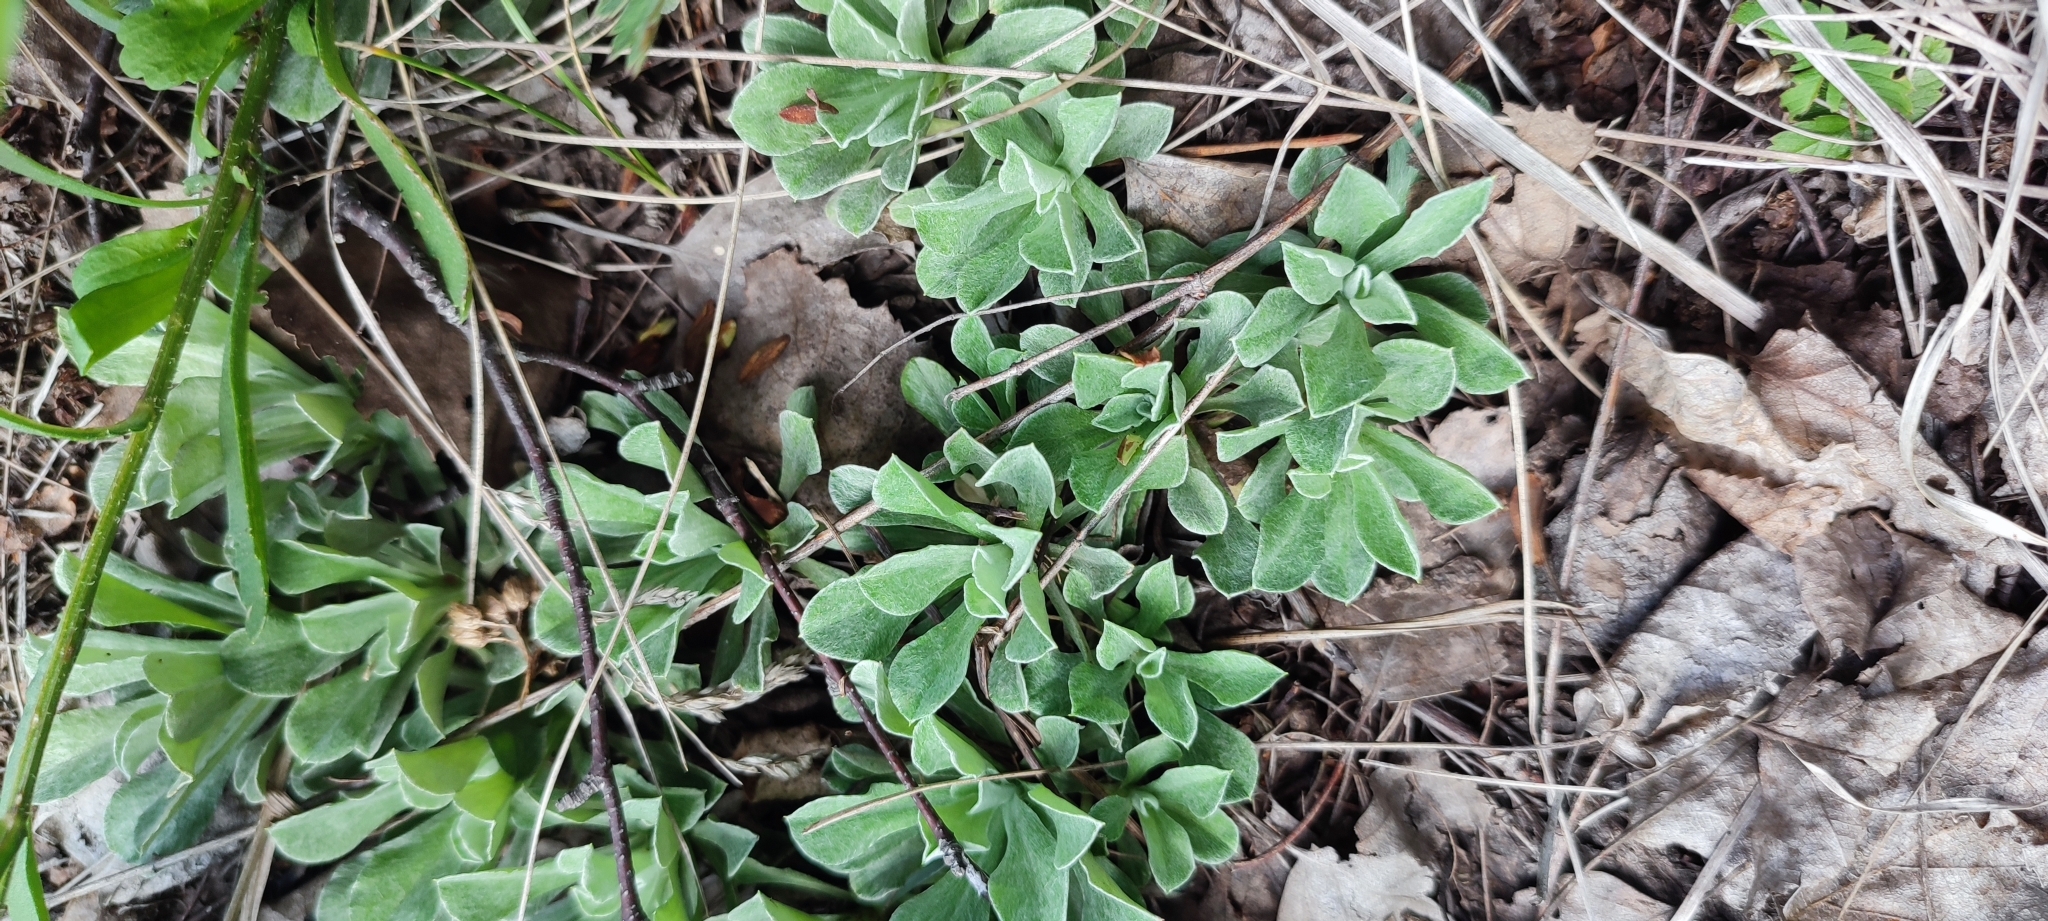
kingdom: Plantae
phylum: Tracheophyta
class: Magnoliopsida
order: Asterales
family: Asteraceae
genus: Antennaria
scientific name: Antennaria dioica
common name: Mountain everlasting
